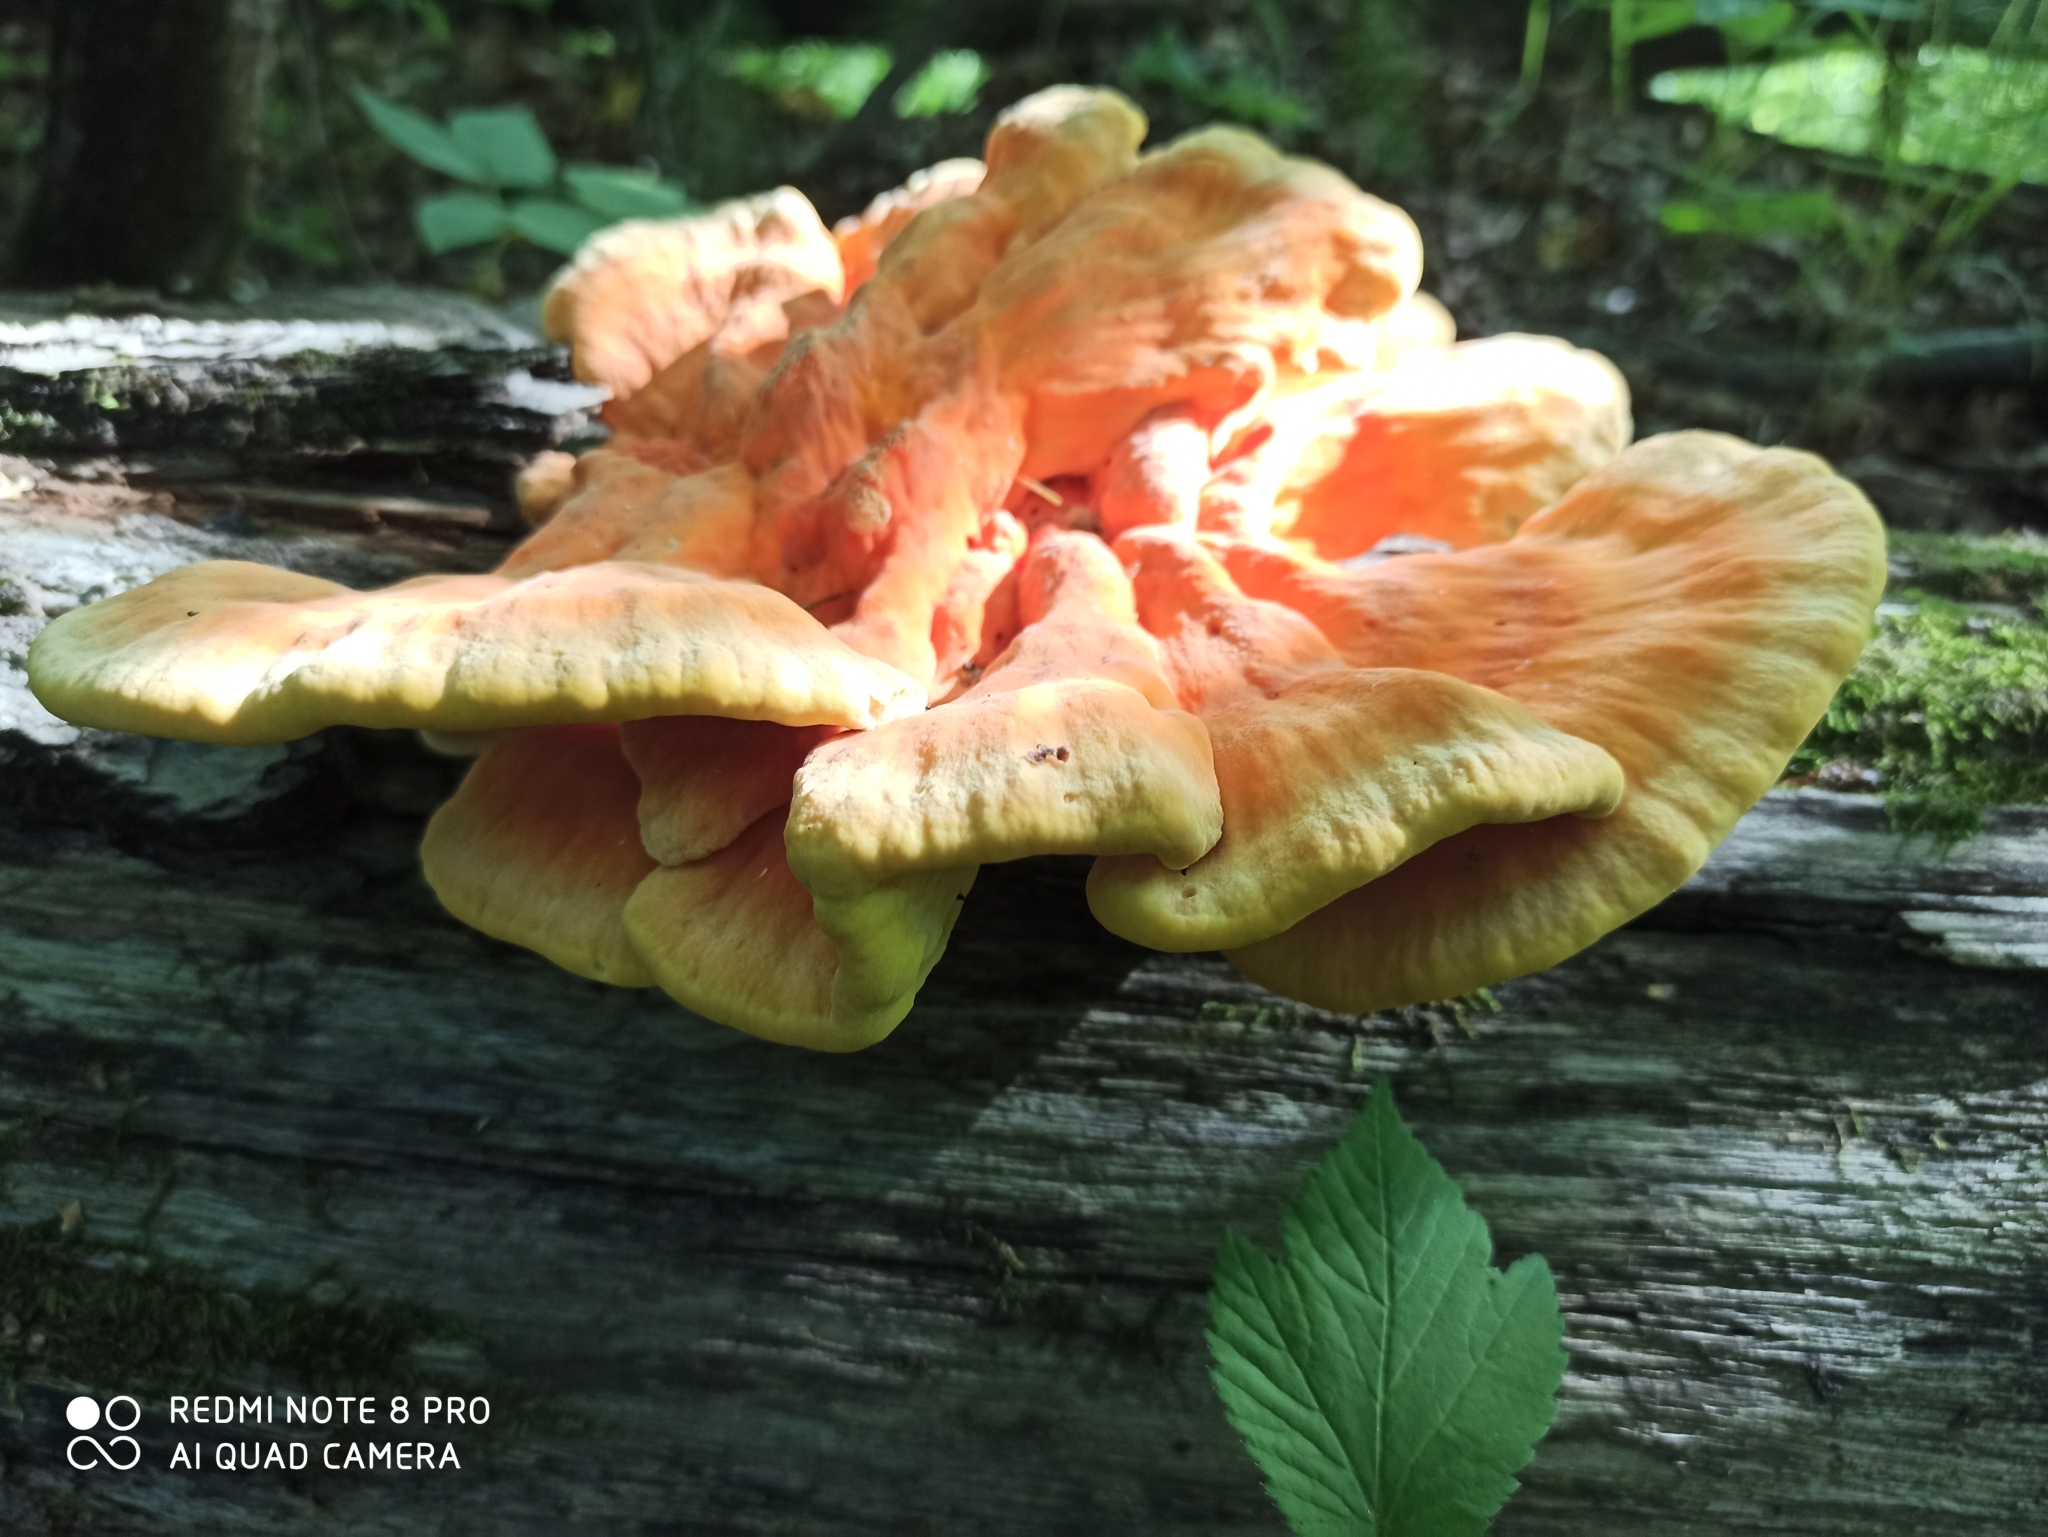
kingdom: Fungi
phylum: Basidiomycota
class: Agaricomycetes
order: Polyporales
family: Laetiporaceae
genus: Laetiporus
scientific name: Laetiporus sulphureus
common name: Chicken of the woods
